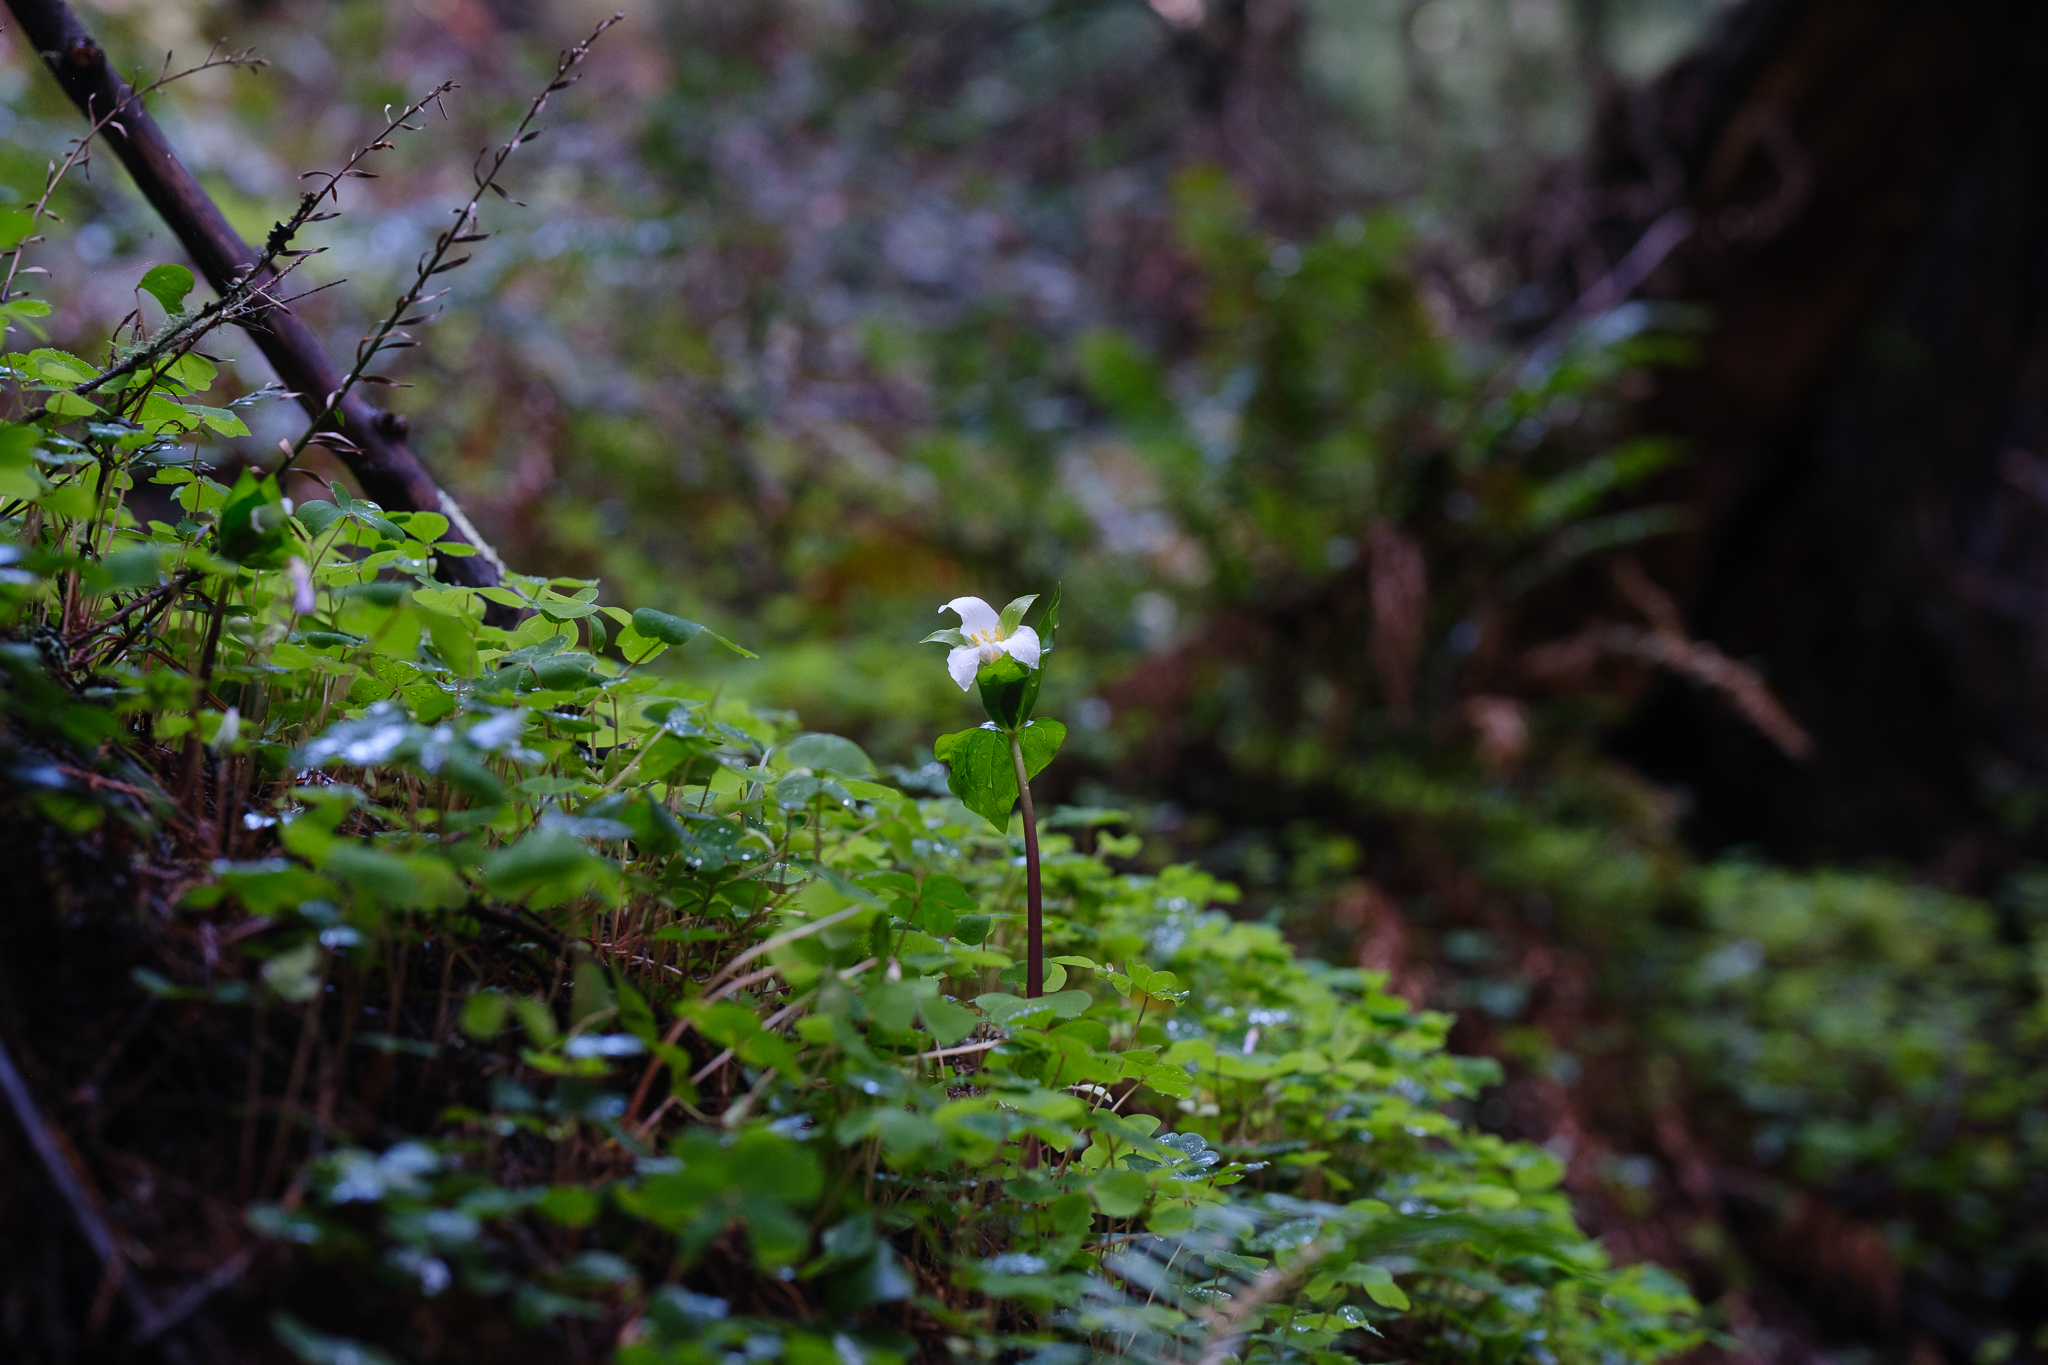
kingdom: Plantae
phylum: Tracheophyta
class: Liliopsida
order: Liliales
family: Melanthiaceae
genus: Trillium
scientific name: Trillium ovatum
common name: Pacific trillium
